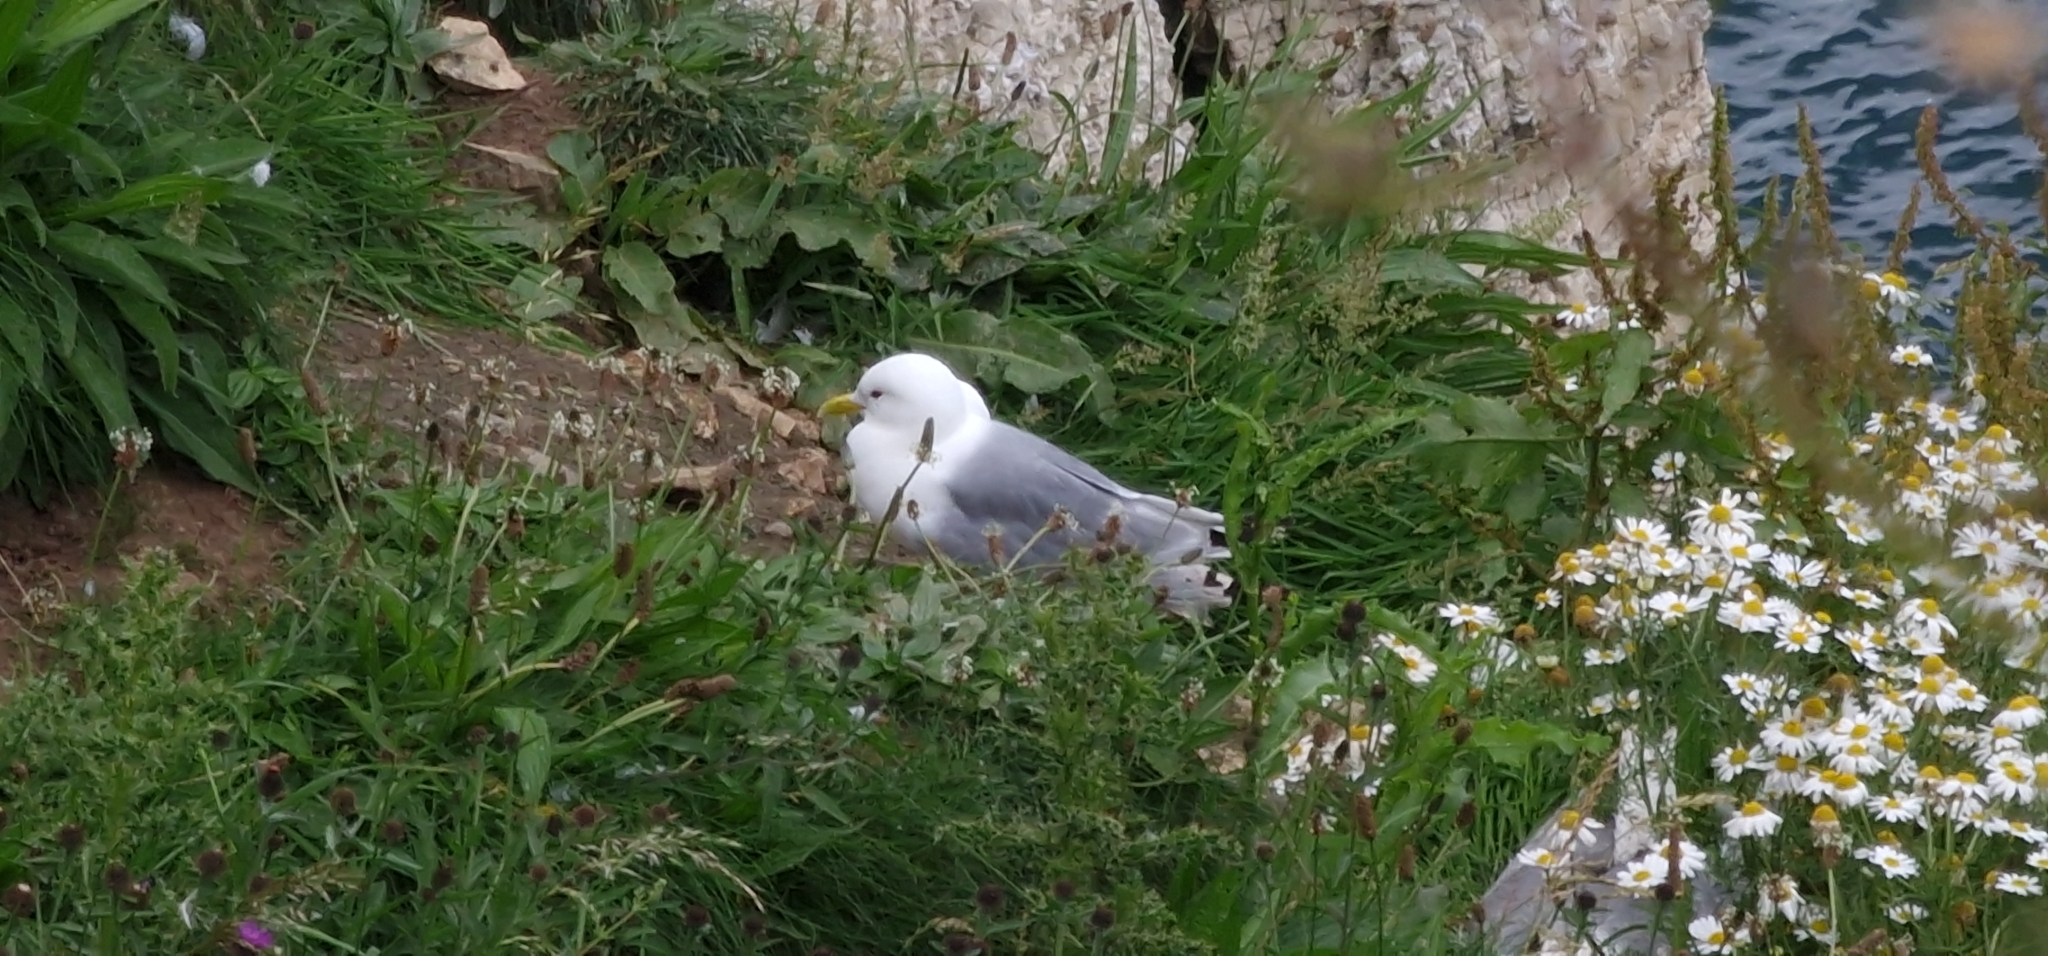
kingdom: Animalia
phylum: Chordata
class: Aves
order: Charadriiformes
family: Laridae
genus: Rissa
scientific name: Rissa tridactyla
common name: Black-legged kittiwake
